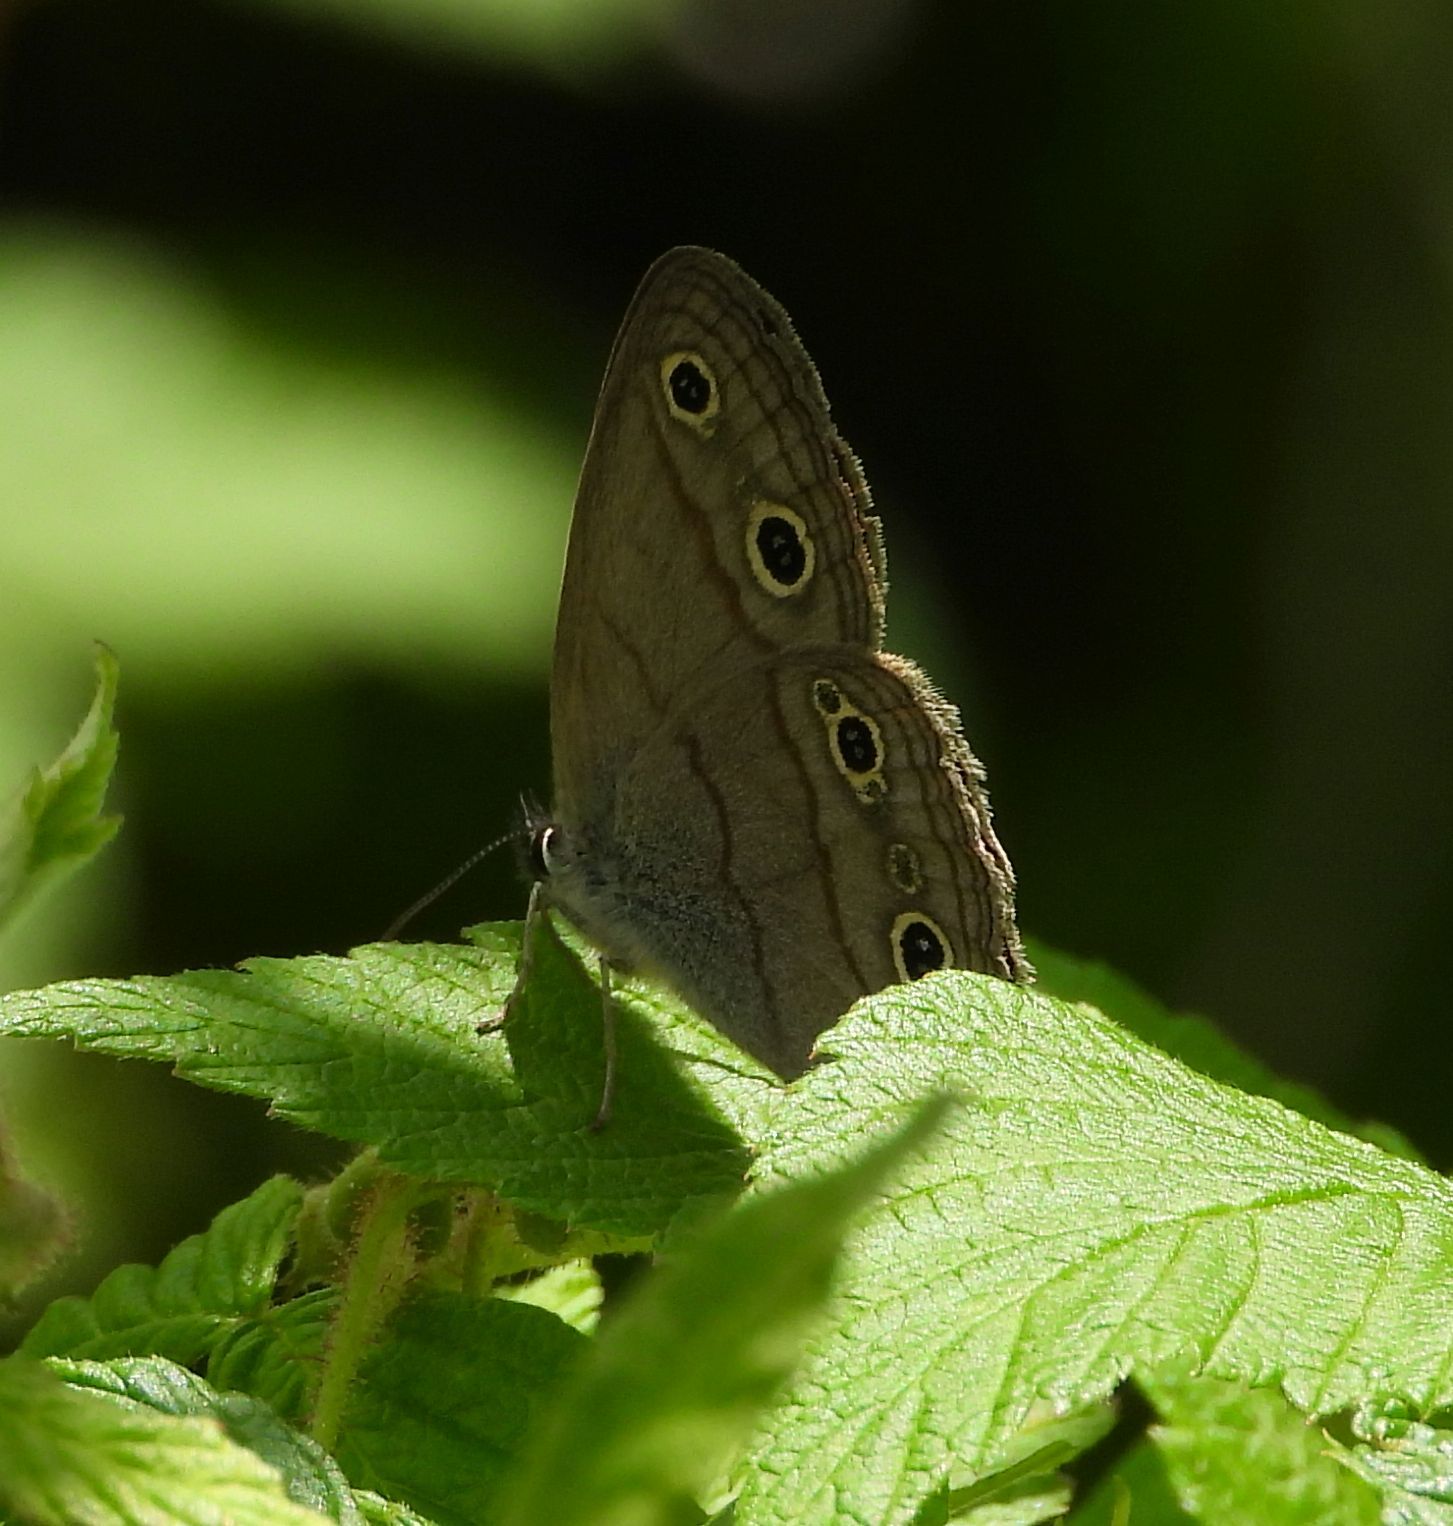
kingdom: Animalia
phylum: Arthropoda
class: Insecta
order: Lepidoptera
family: Nymphalidae
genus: Euptychia
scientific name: Euptychia cymela
